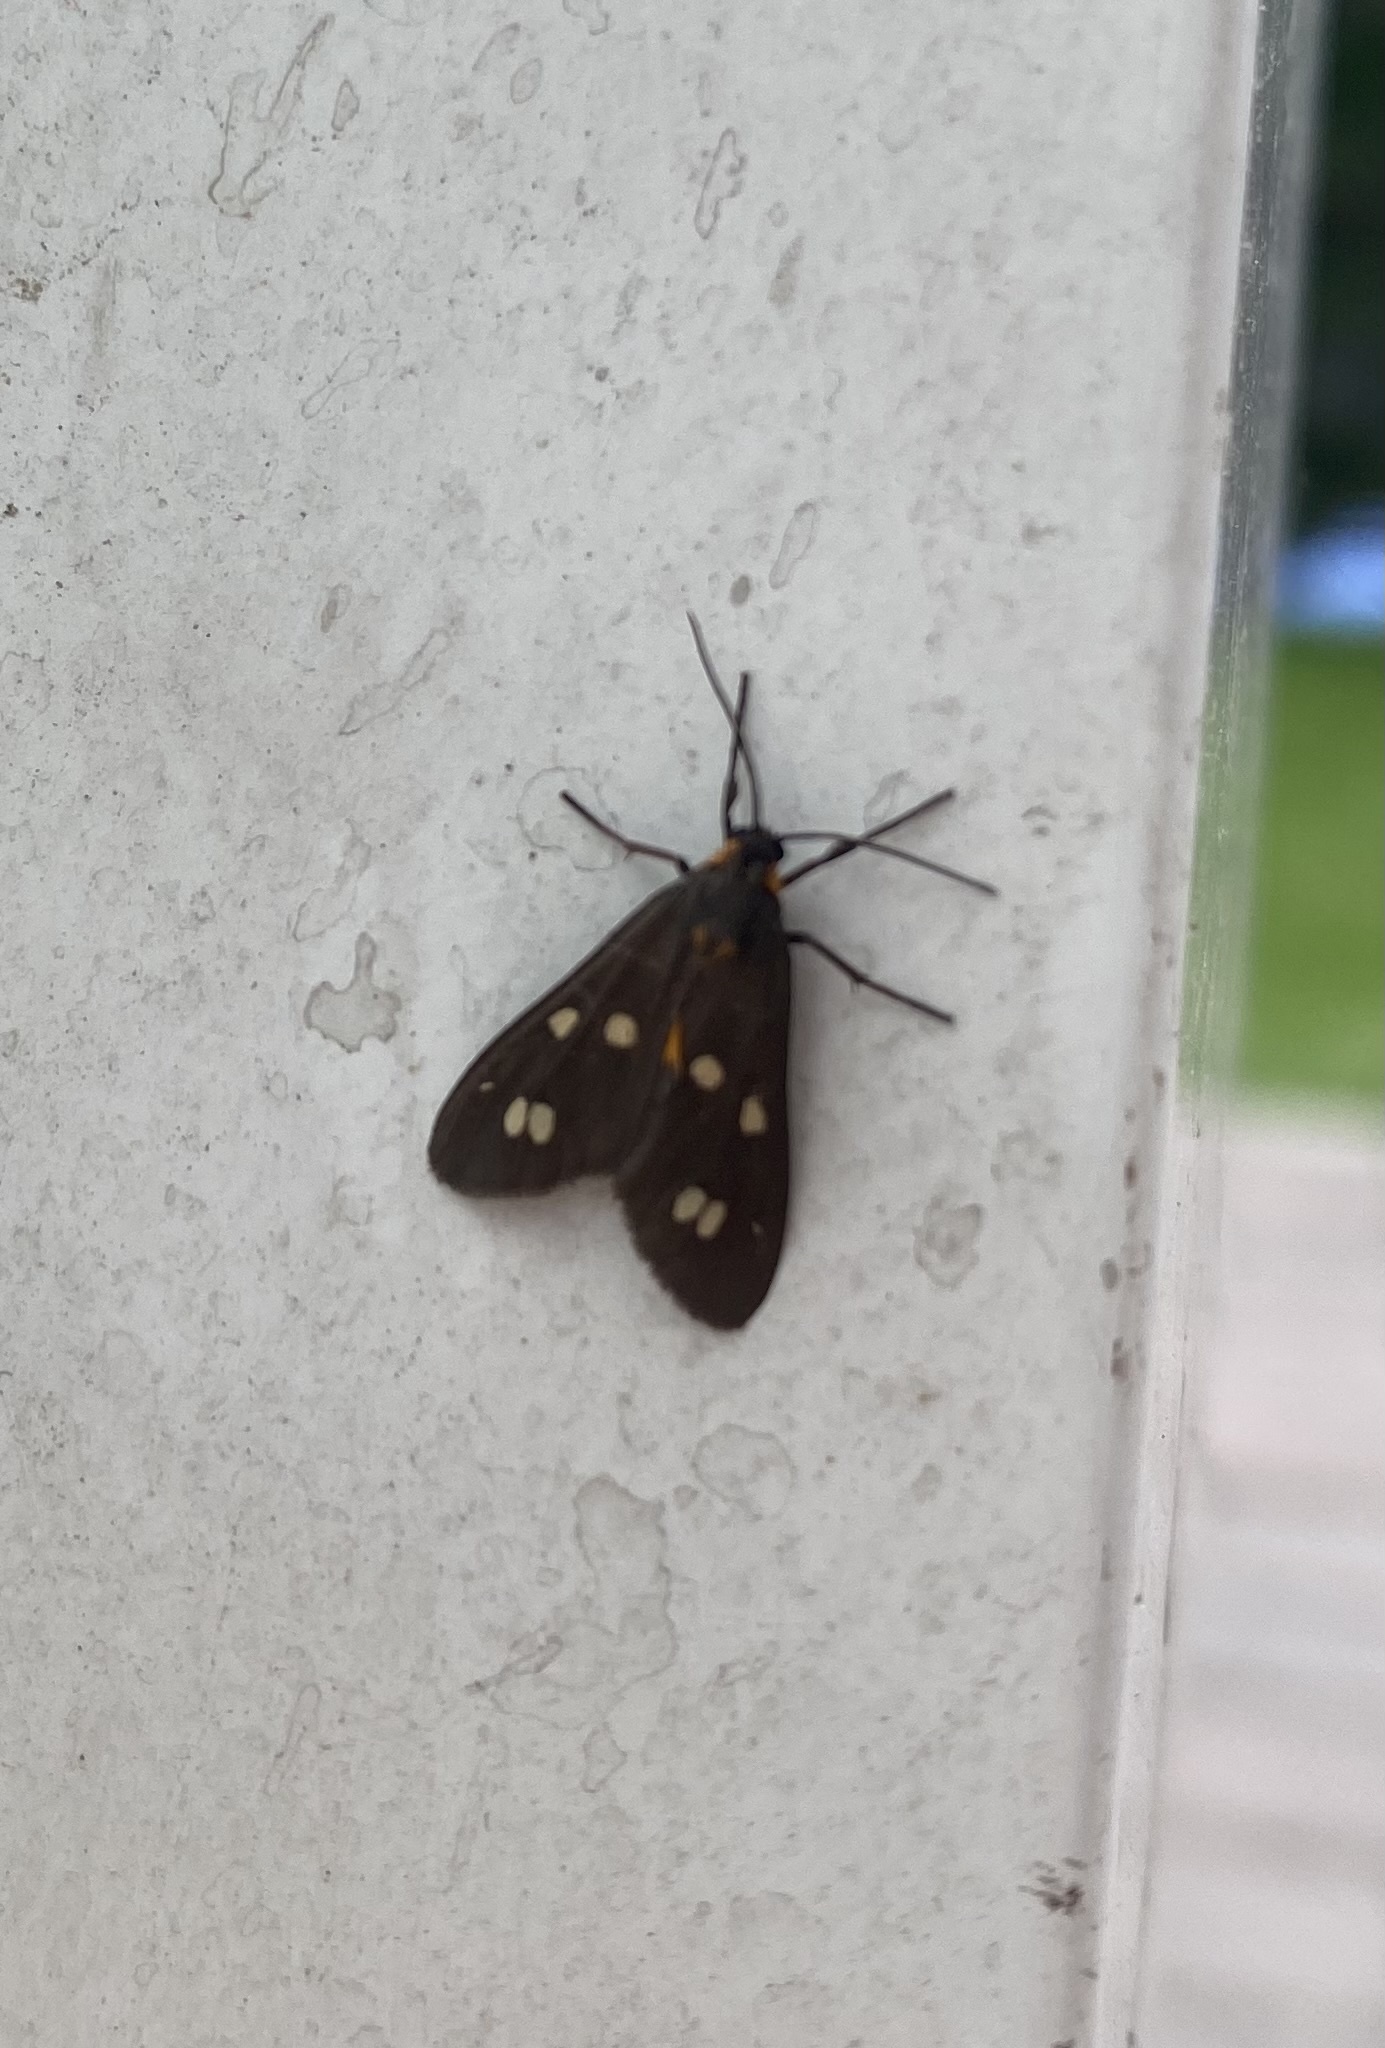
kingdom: Animalia
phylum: Arthropoda
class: Insecta
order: Lepidoptera
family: Erebidae
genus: Dysauxes
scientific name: Dysauxes punctata
